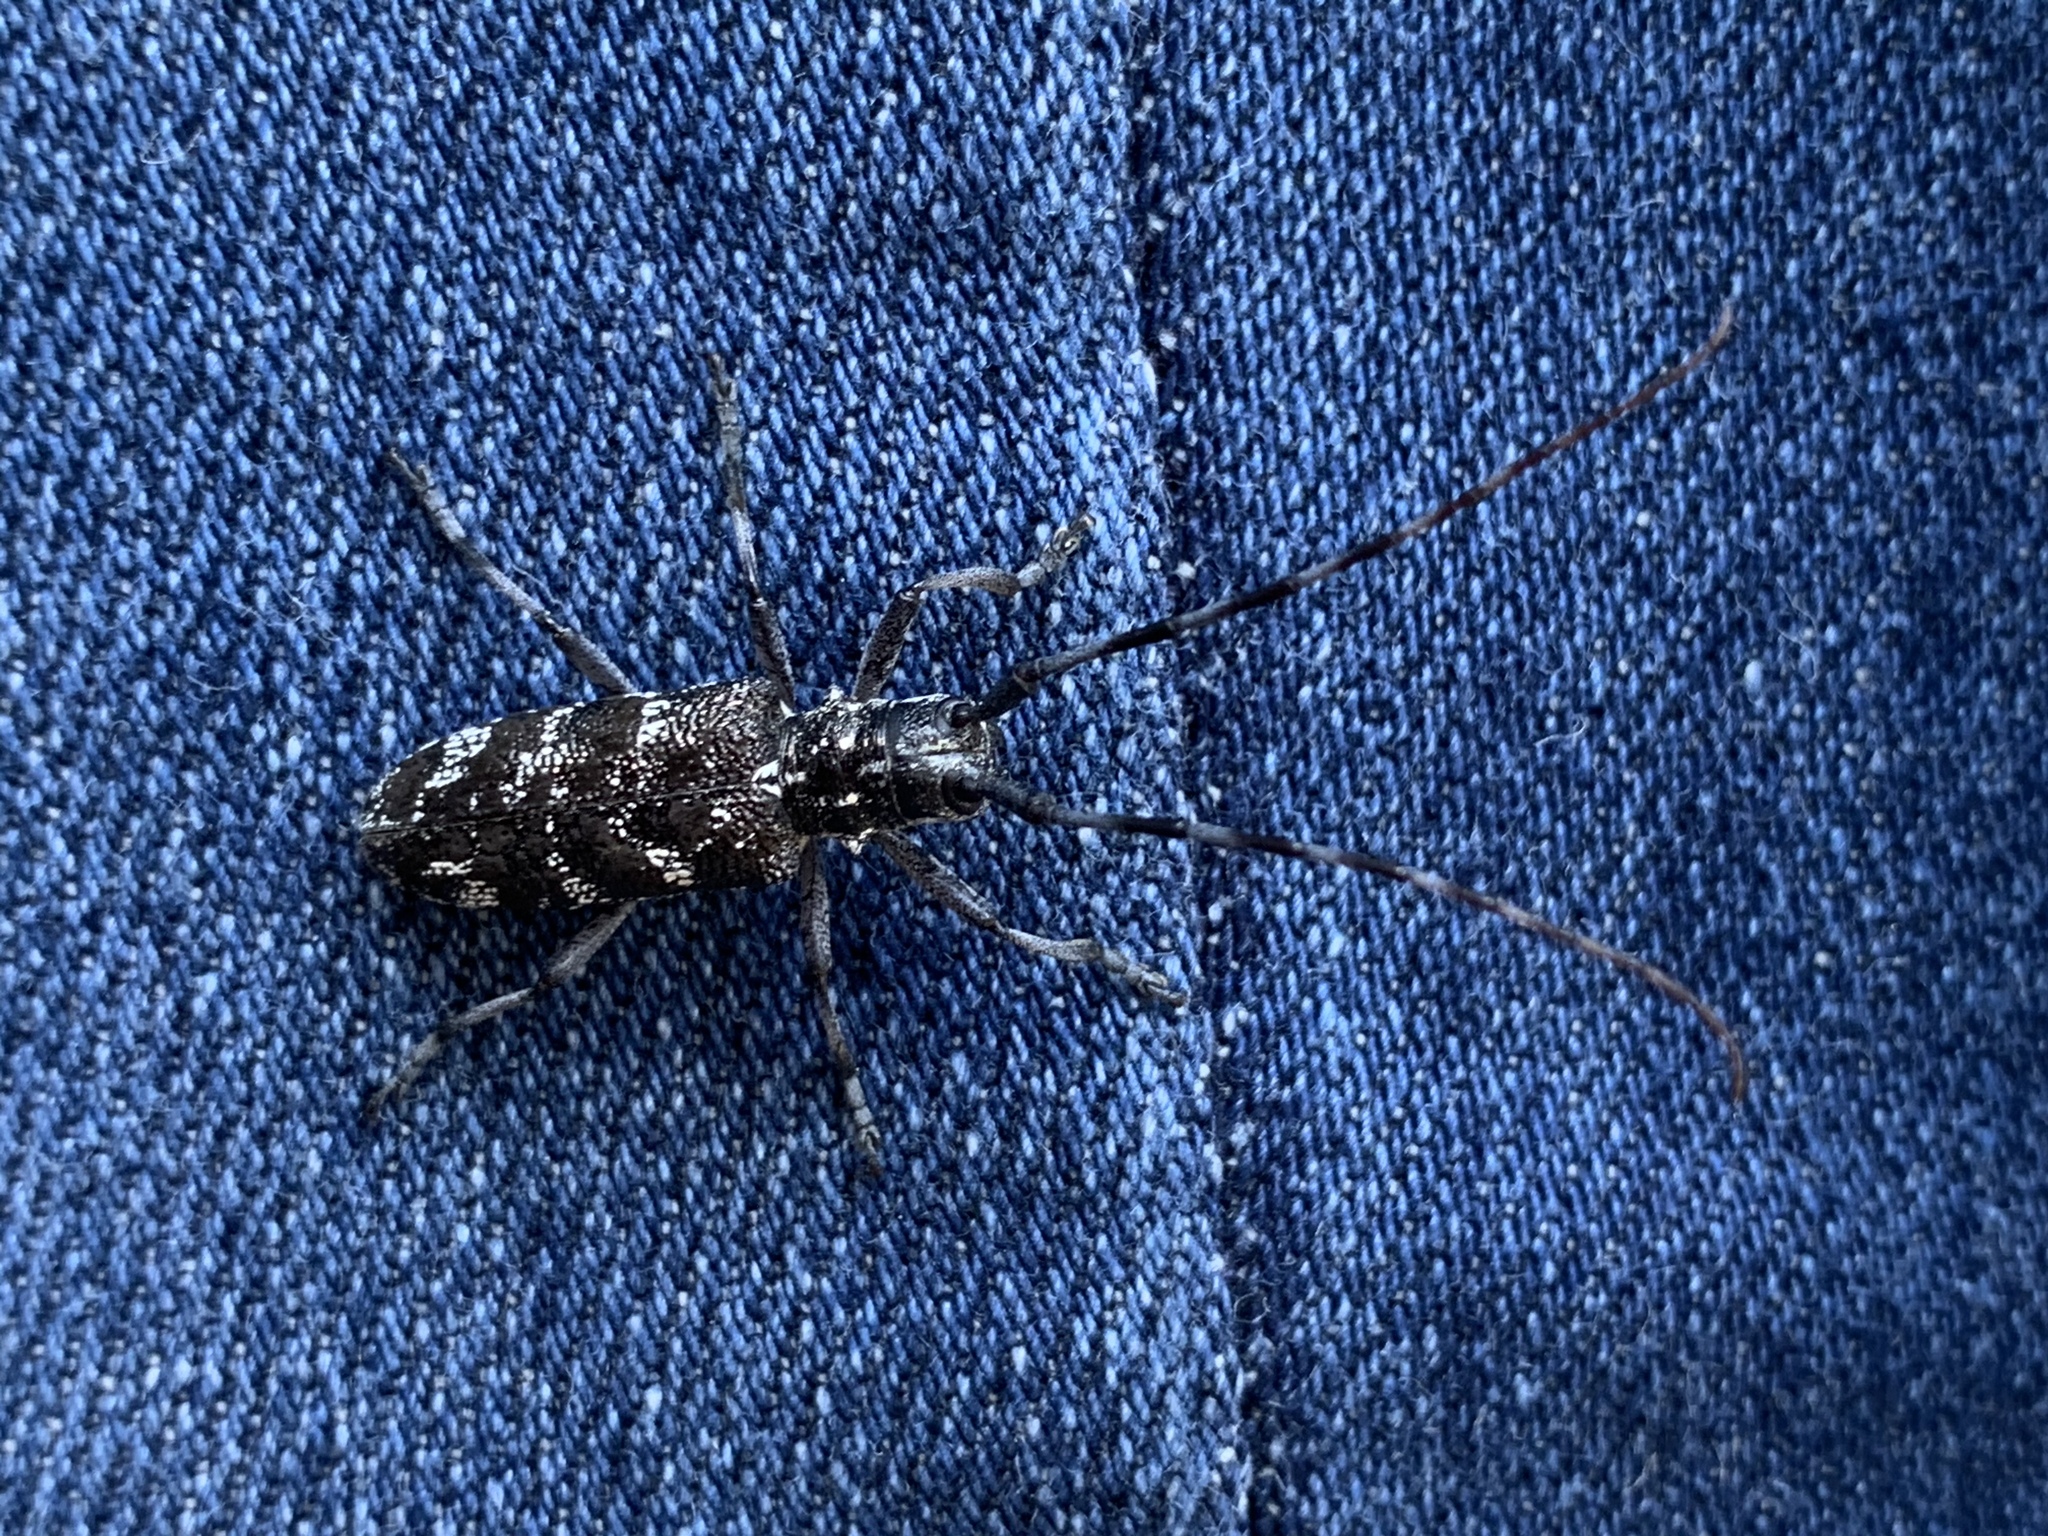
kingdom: Animalia
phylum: Arthropoda
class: Insecta
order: Coleoptera
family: Cerambycidae
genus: Monochamus
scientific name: Monochamus clamator
